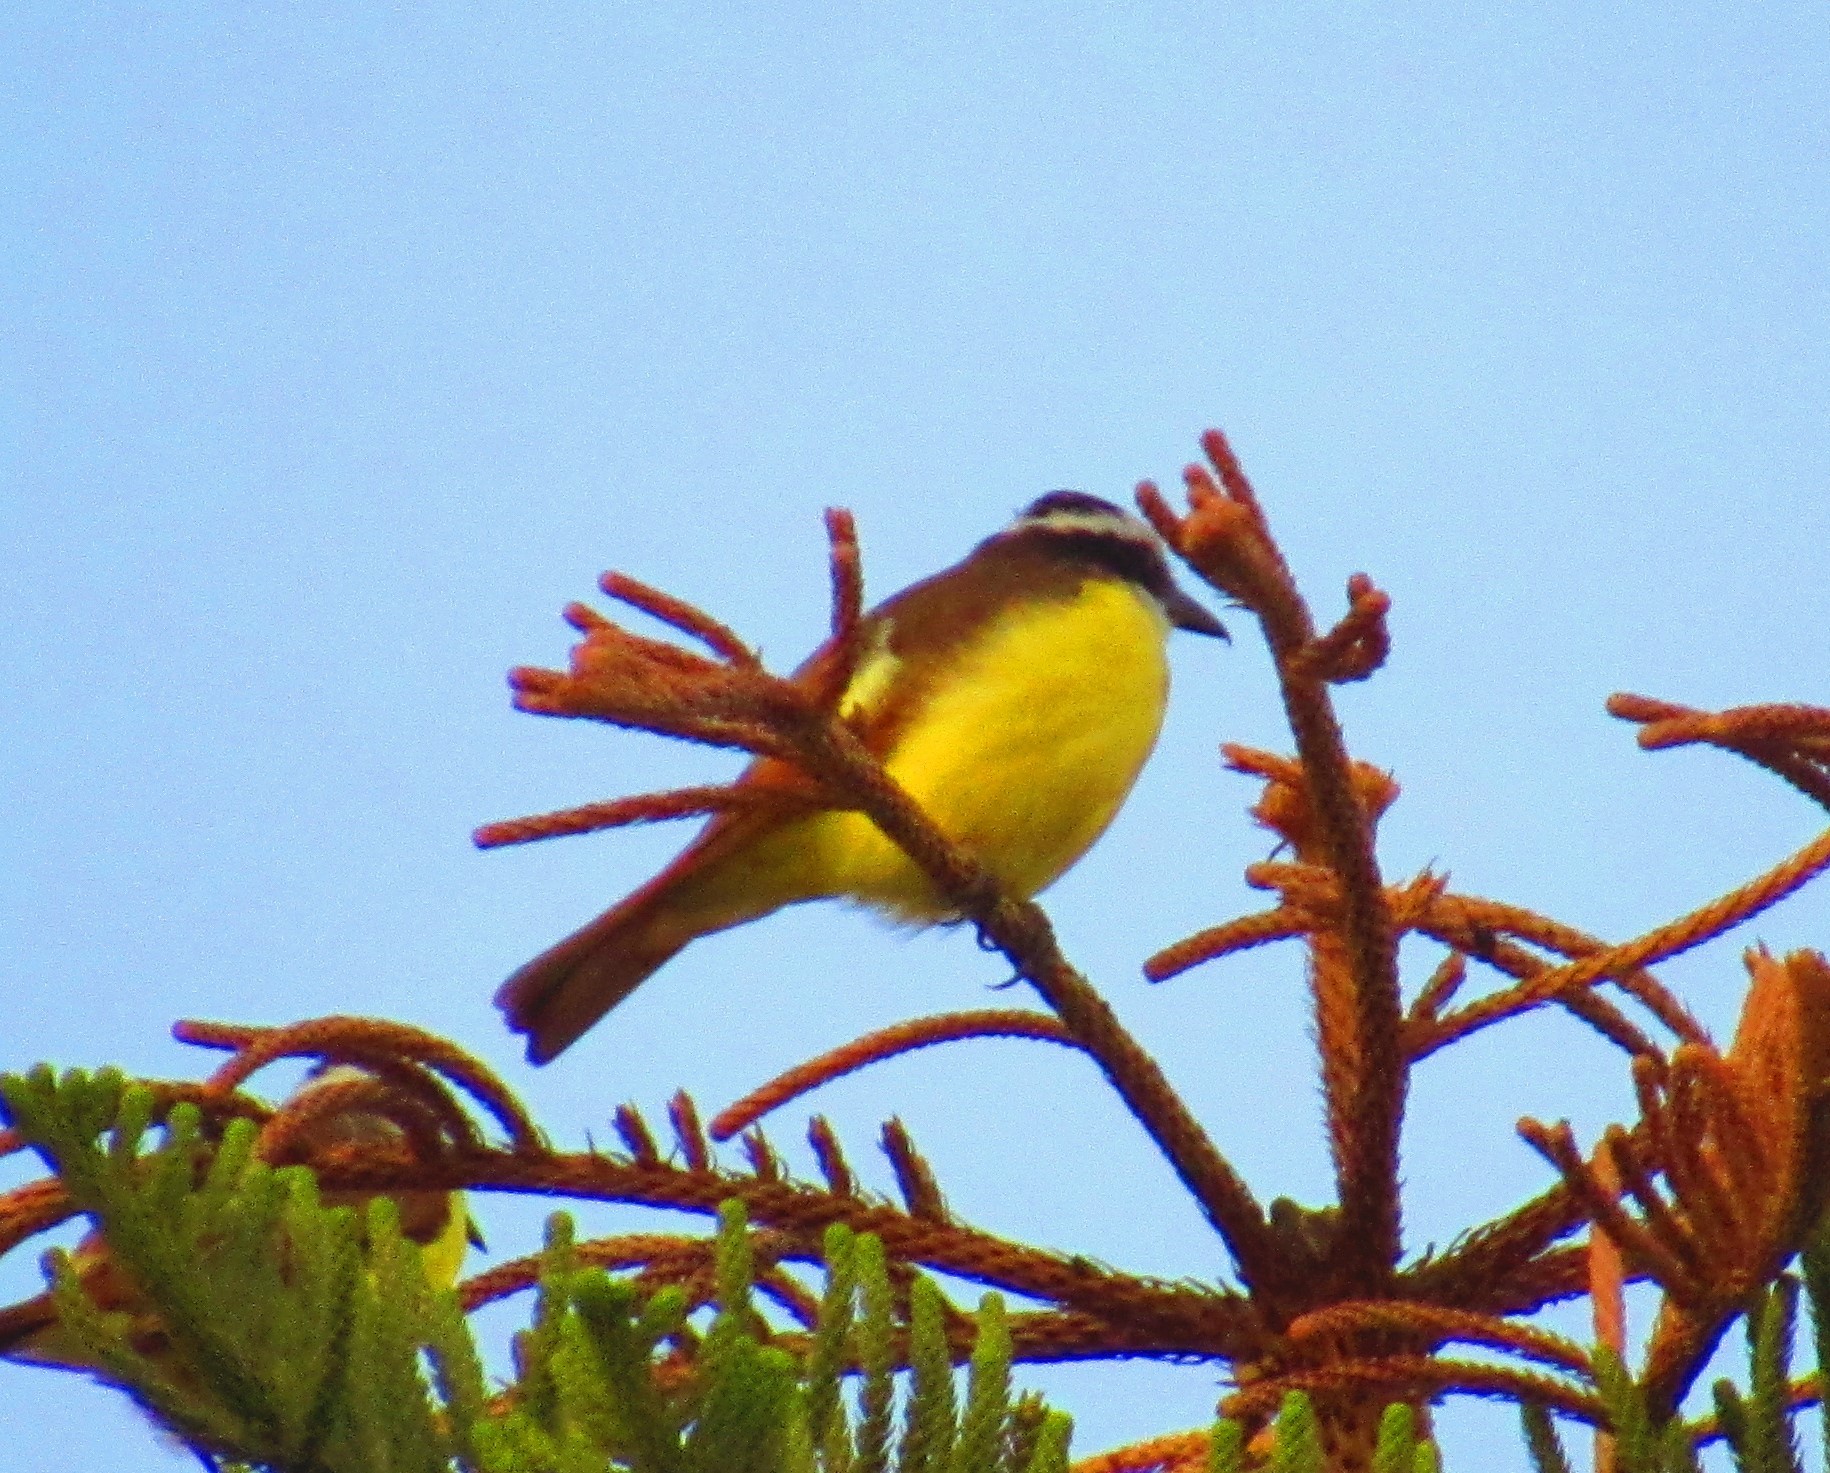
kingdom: Animalia
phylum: Chordata
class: Aves
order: Passeriformes
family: Tyrannidae
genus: Pitangus
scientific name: Pitangus sulphuratus
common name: Great kiskadee
